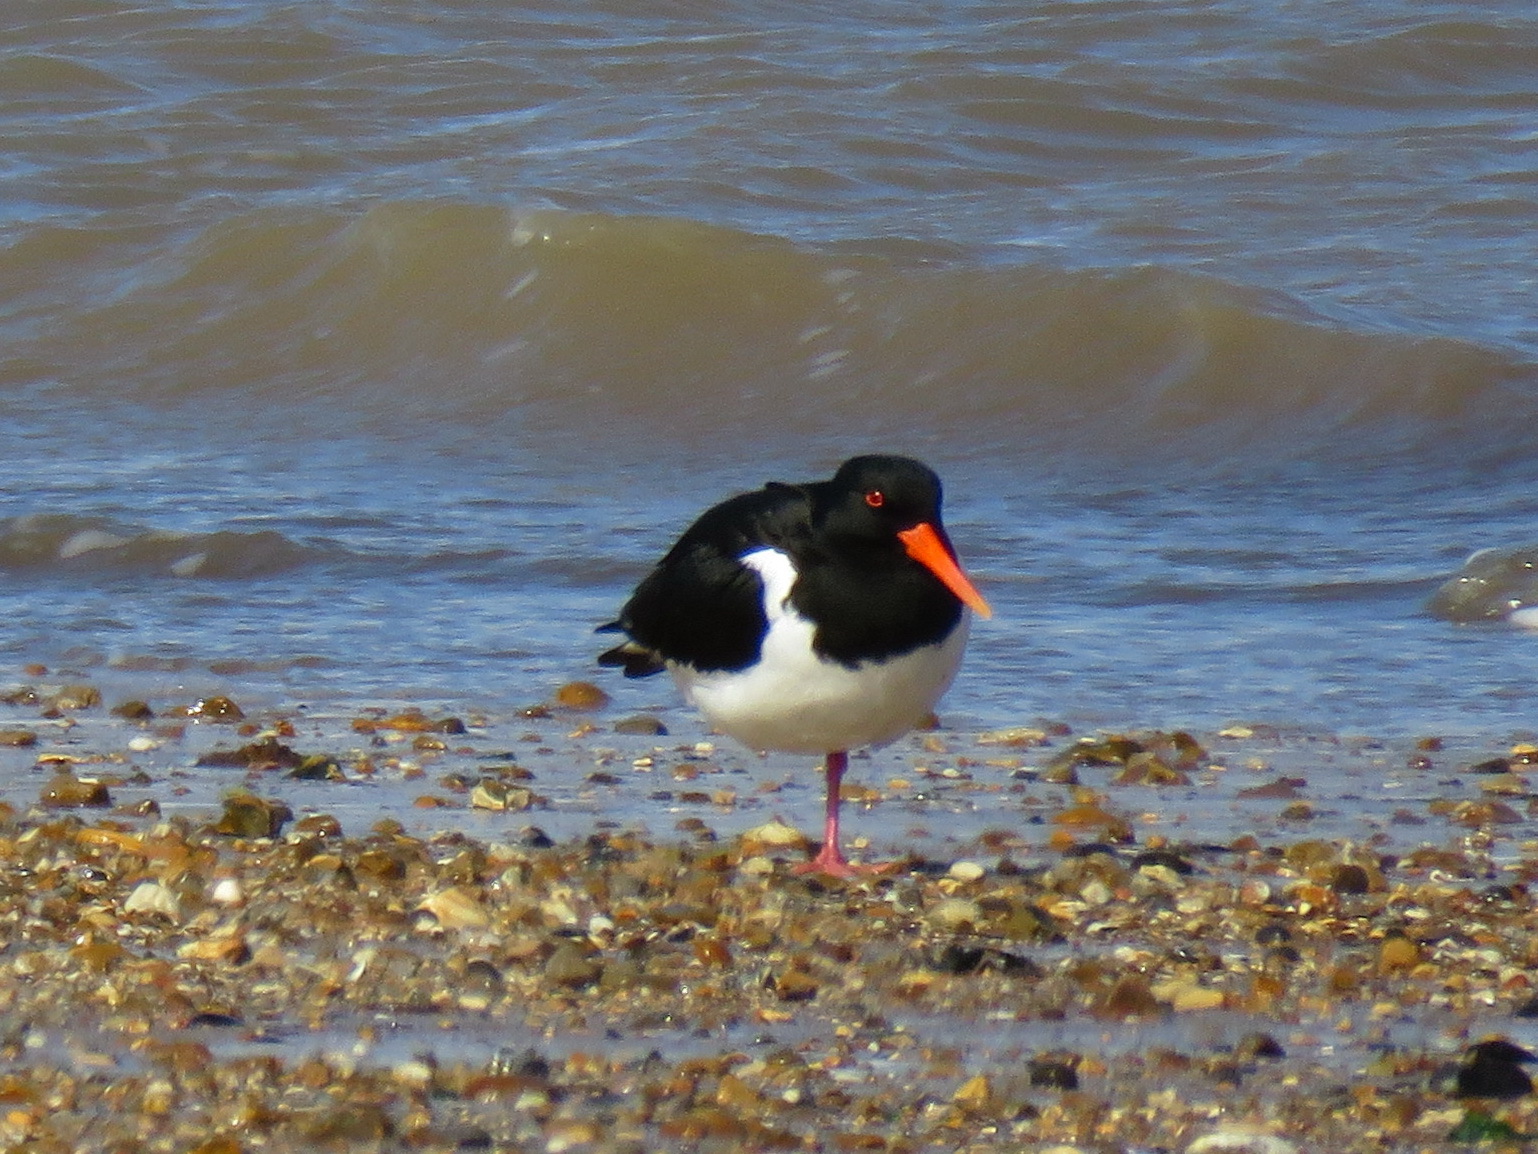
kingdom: Animalia
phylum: Chordata
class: Aves
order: Charadriiformes
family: Haematopodidae
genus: Haematopus
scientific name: Haematopus ostralegus
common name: Eurasian oystercatcher
